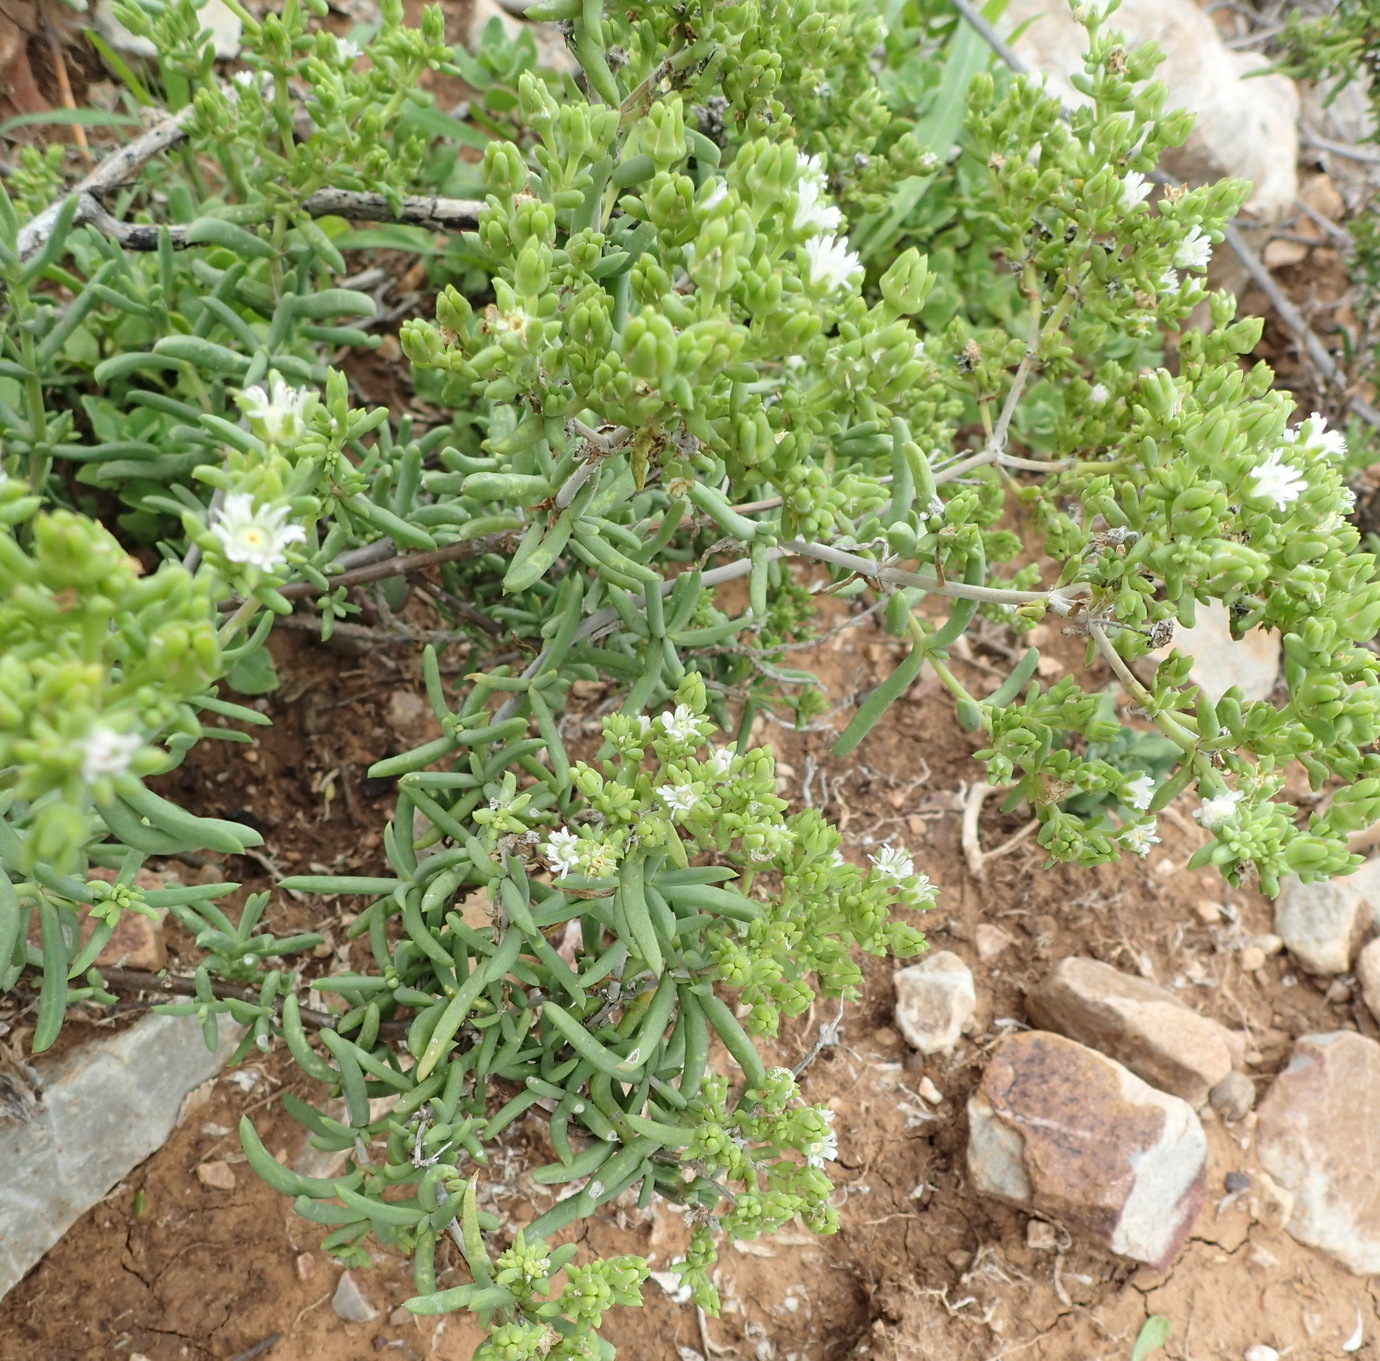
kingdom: Plantae
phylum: Tracheophyta
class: Magnoliopsida
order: Caryophyllales
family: Aizoaceae
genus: Delosperma
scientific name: Delosperma subincanum
